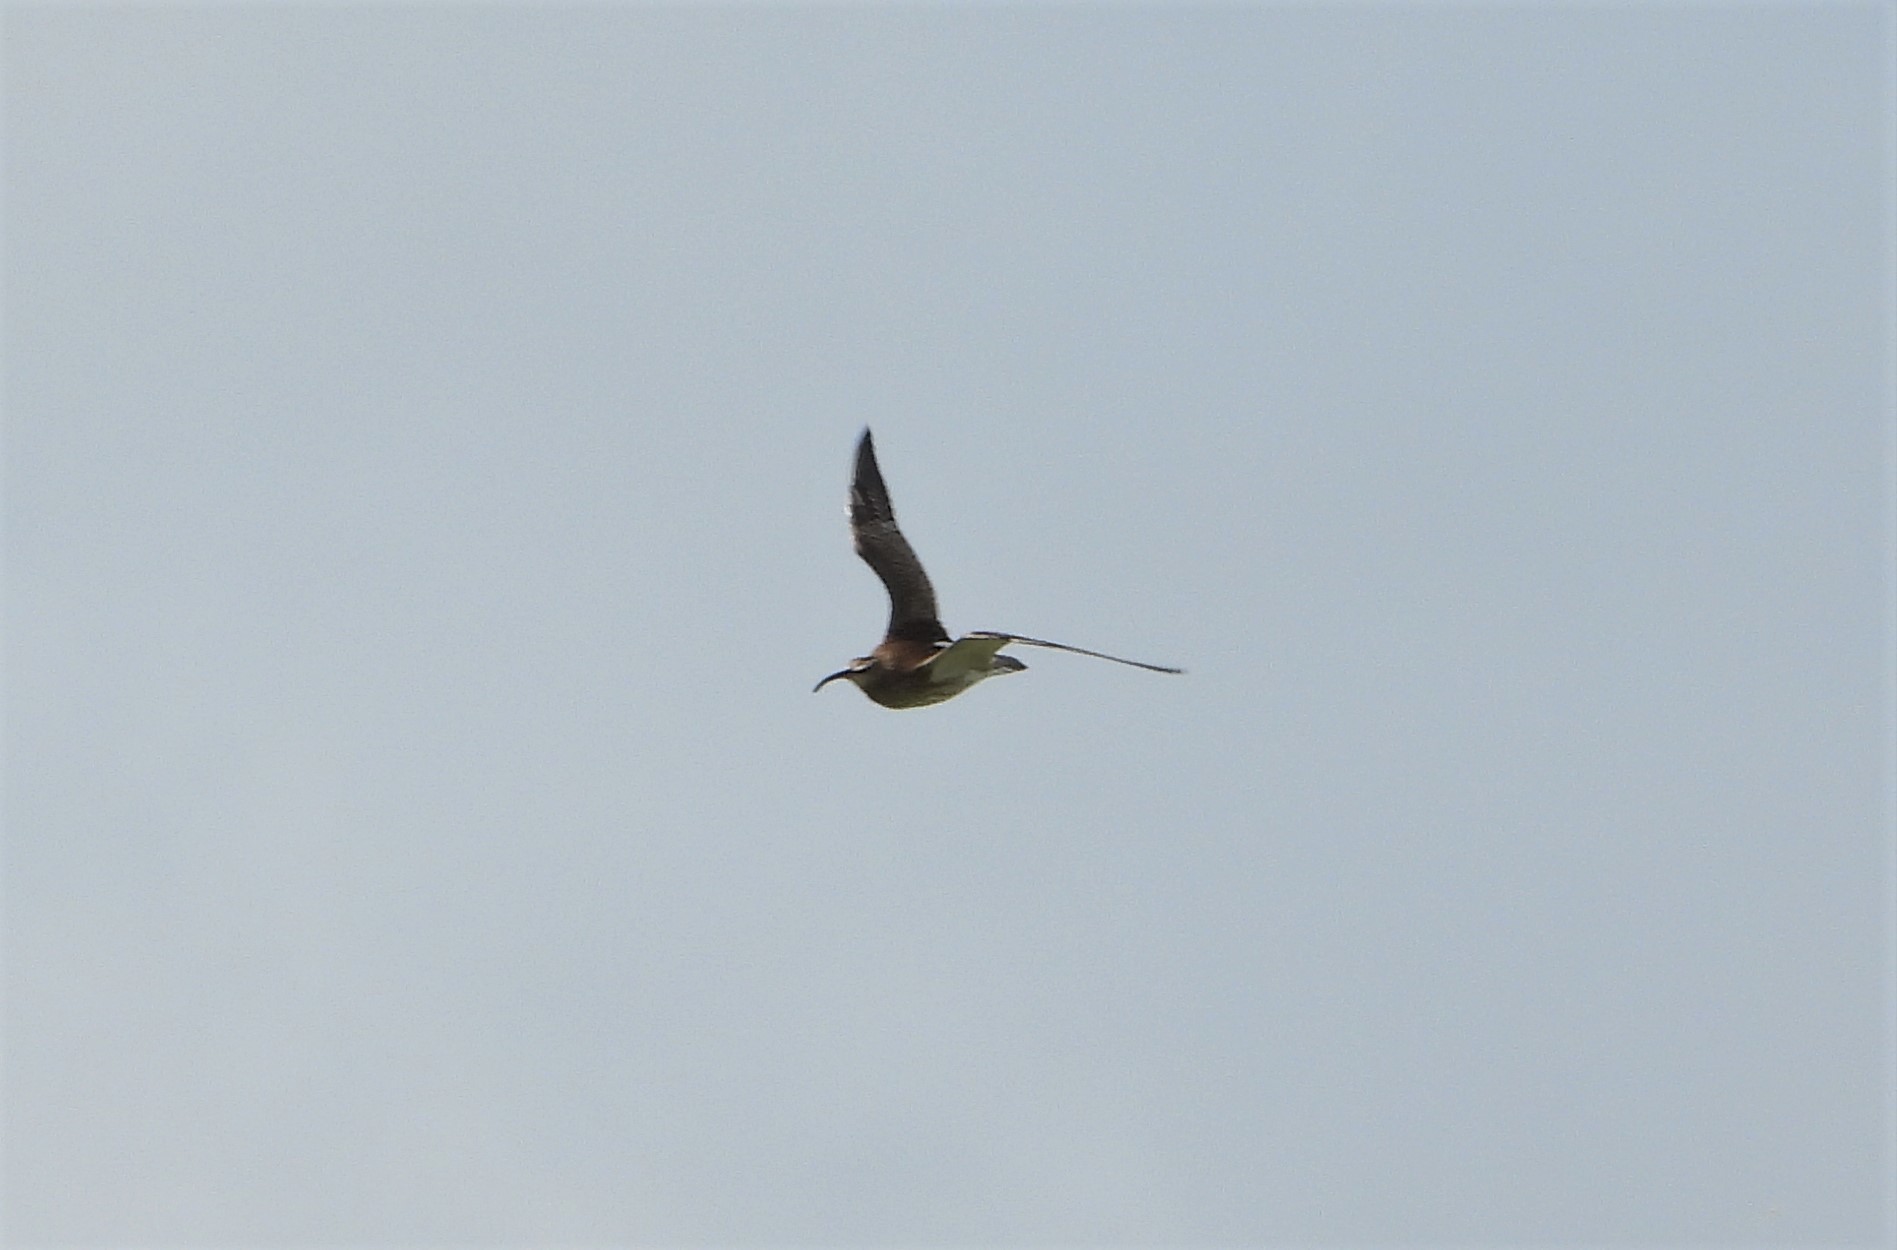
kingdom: Animalia
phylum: Chordata
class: Aves
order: Charadriiformes
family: Scolopacidae
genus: Numenius
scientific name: Numenius phaeopus
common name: Whimbrel
